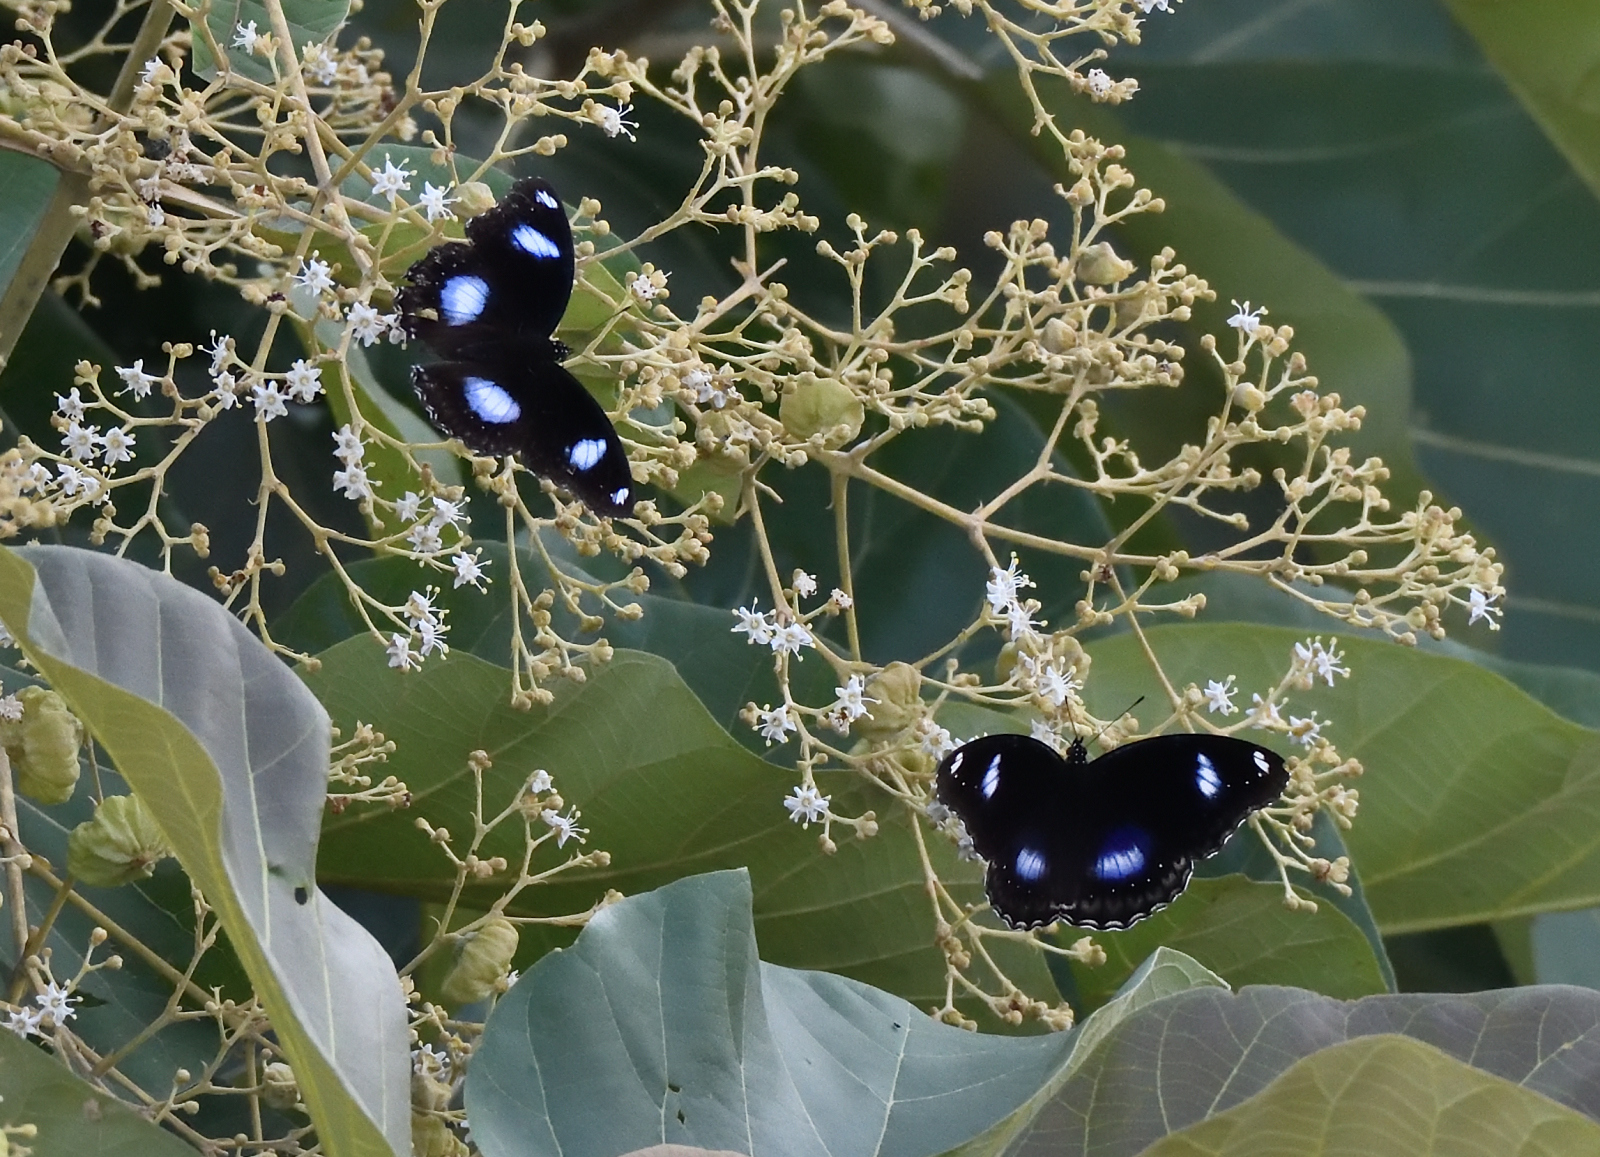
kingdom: Animalia
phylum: Arthropoda
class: Insecta
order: Lepidoptera
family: Nymphalidae
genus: Hypolimnas
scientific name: Hypolimnas bolina
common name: Great eggfly
